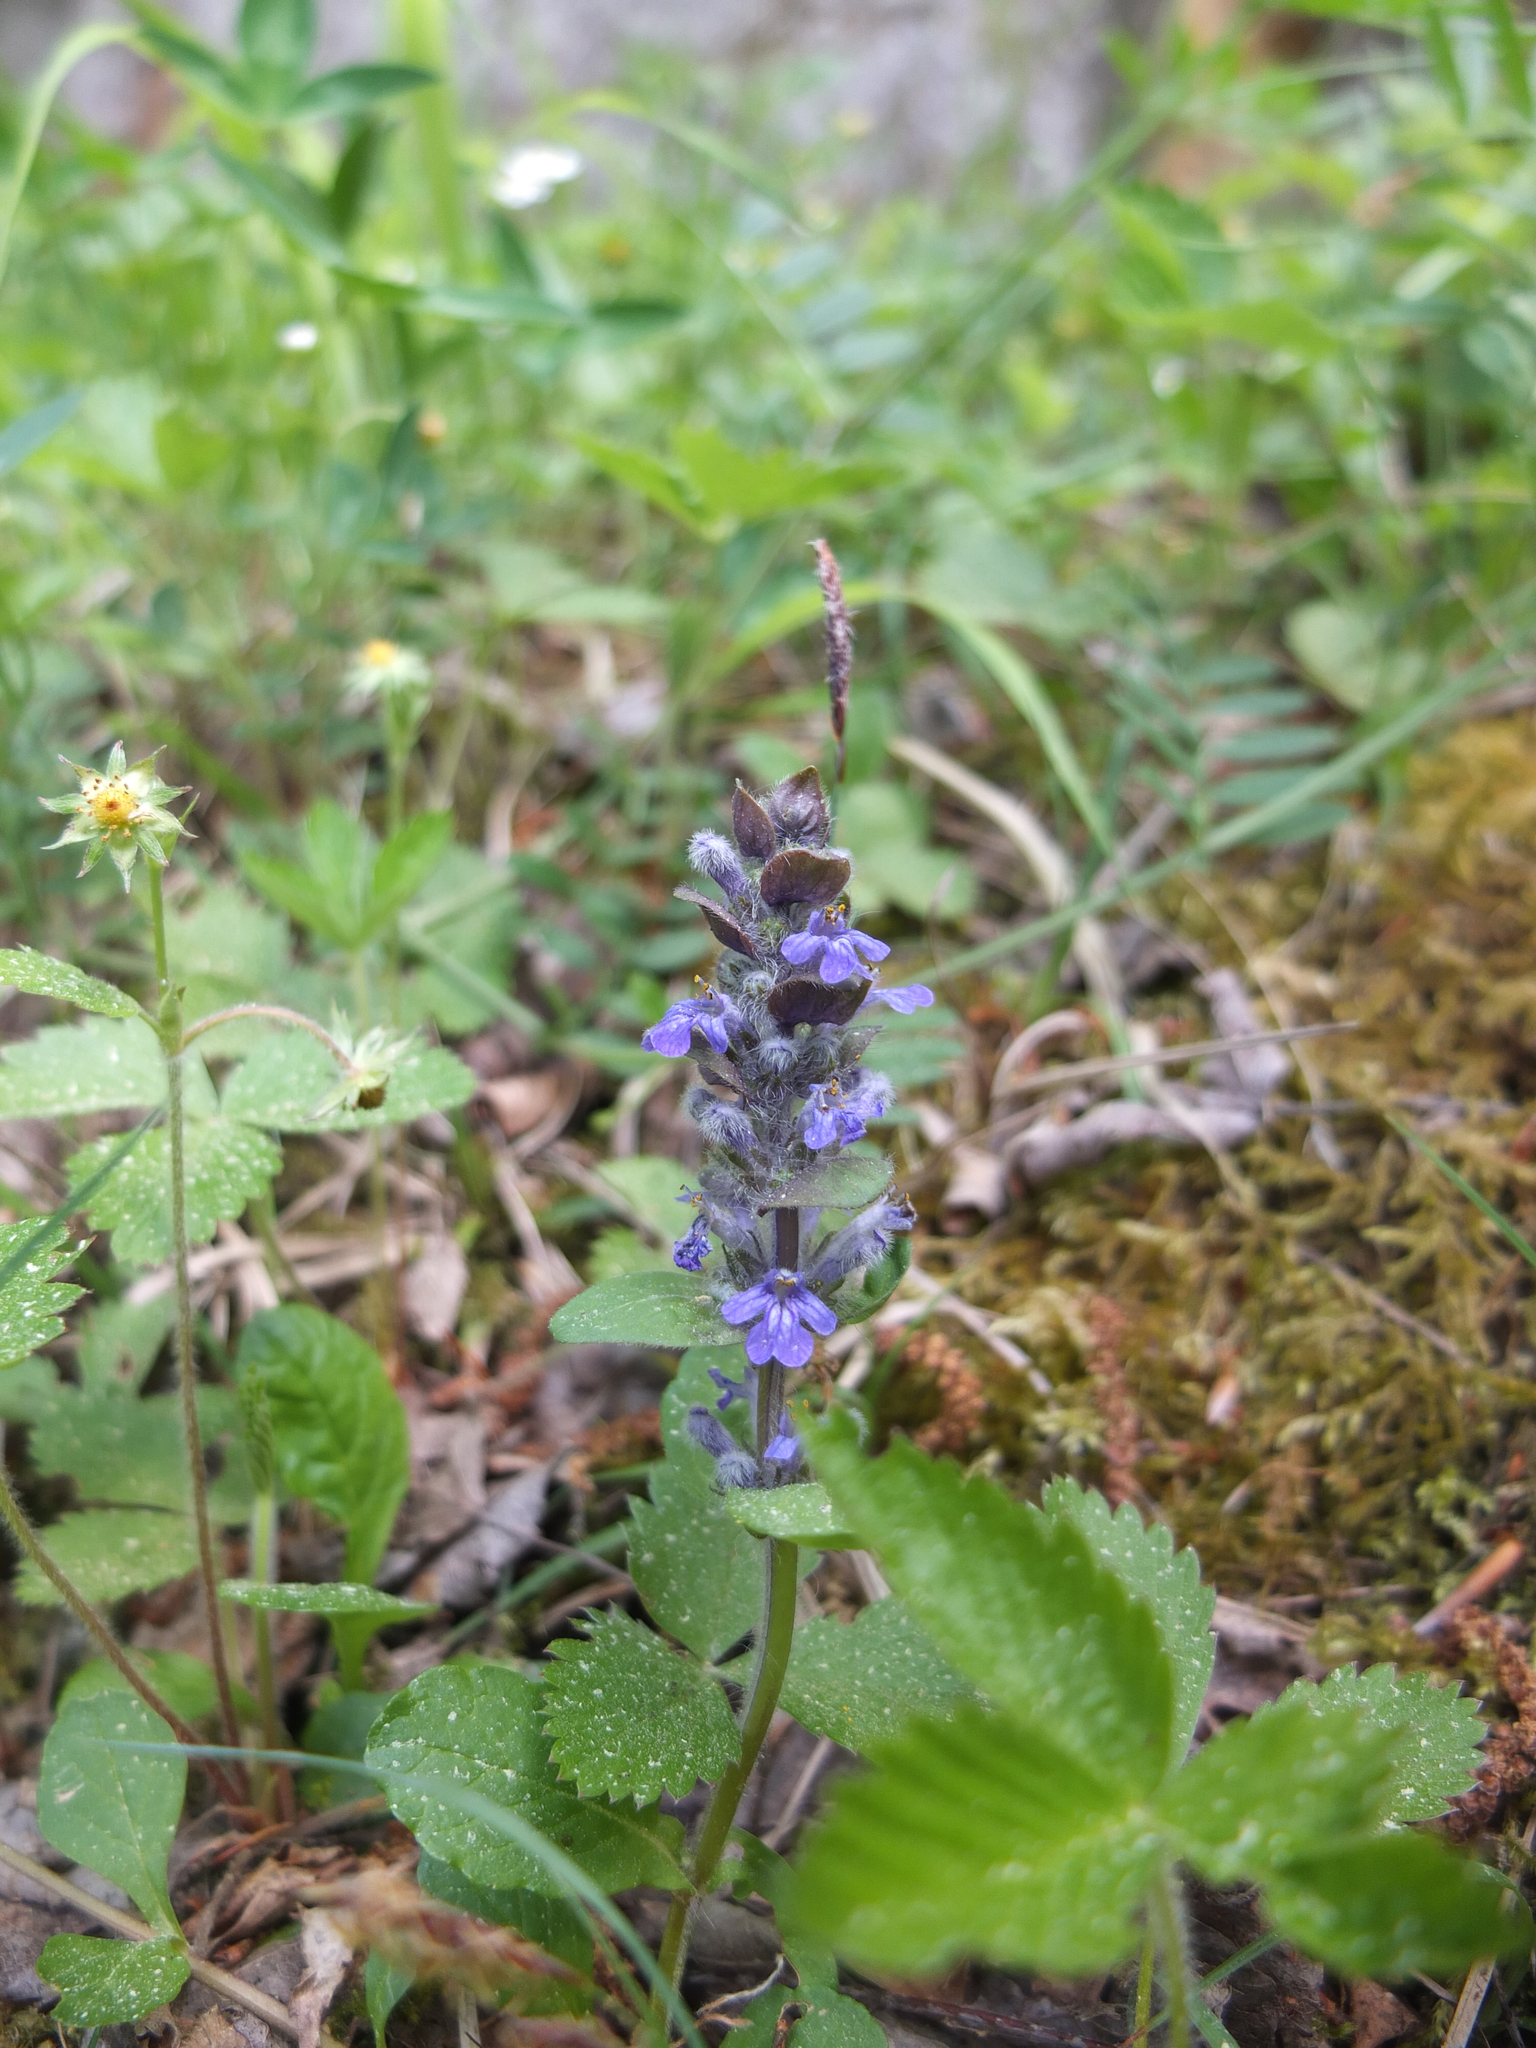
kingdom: Plantae
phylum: Tracheophyta
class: Magnoliopsida
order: Lamiales
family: Lamiaceae
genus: Ajuga
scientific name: Ajuga reptans
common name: Bugle
